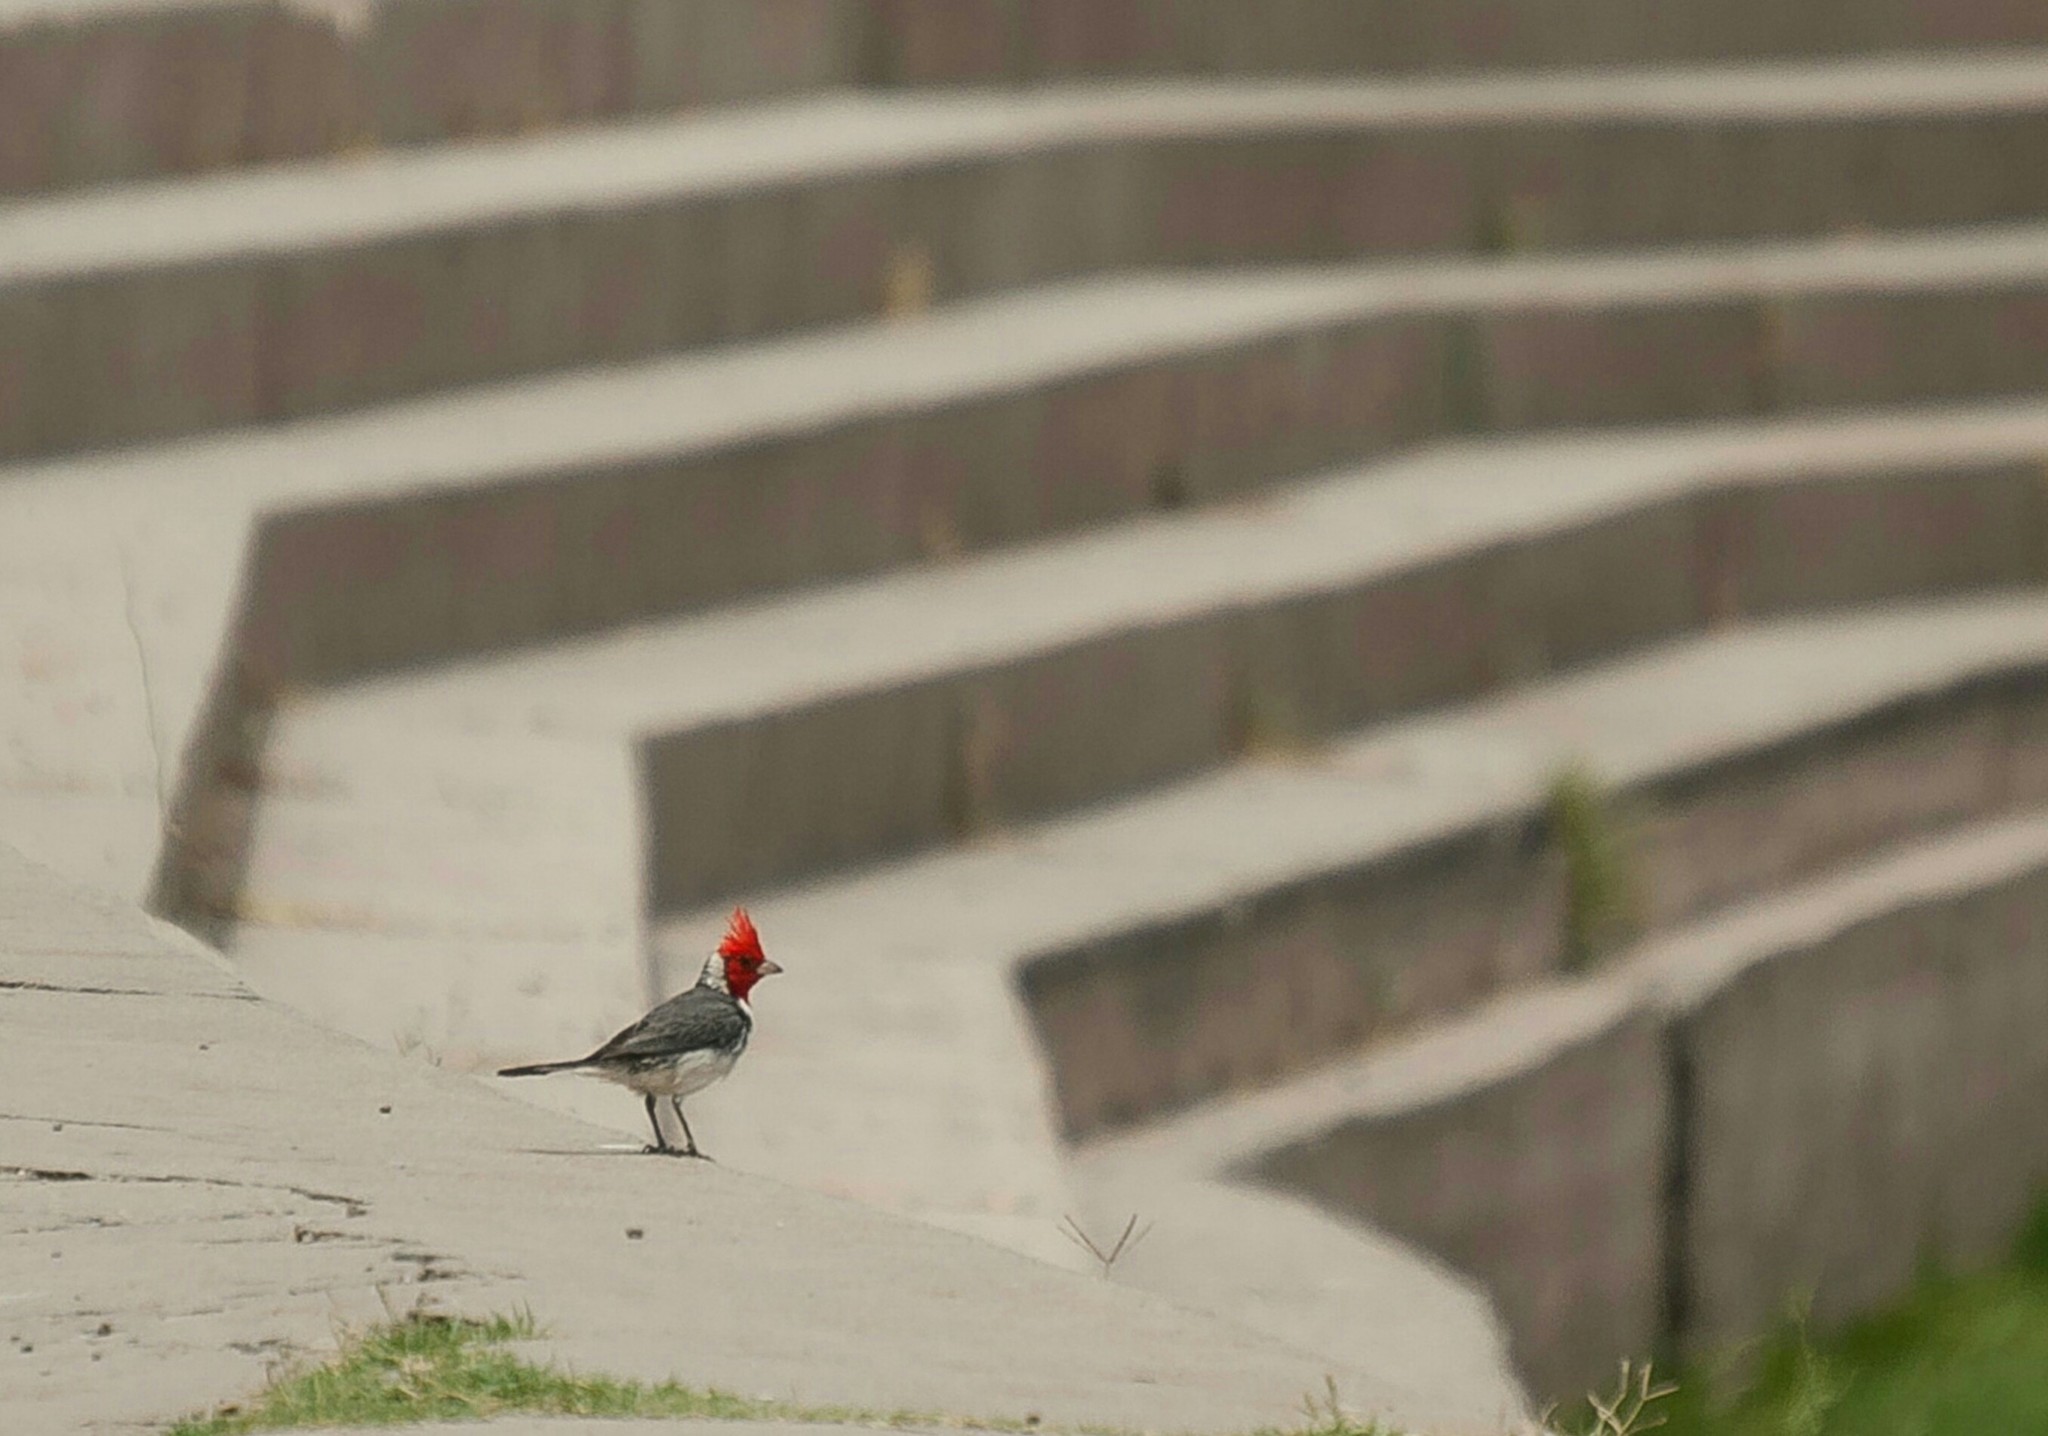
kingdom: Animalia
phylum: Chordata
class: Aves
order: Passeriformes
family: Thraupidae
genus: Paroaria
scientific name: Paroaria coronata
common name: Red-crested cardinal
